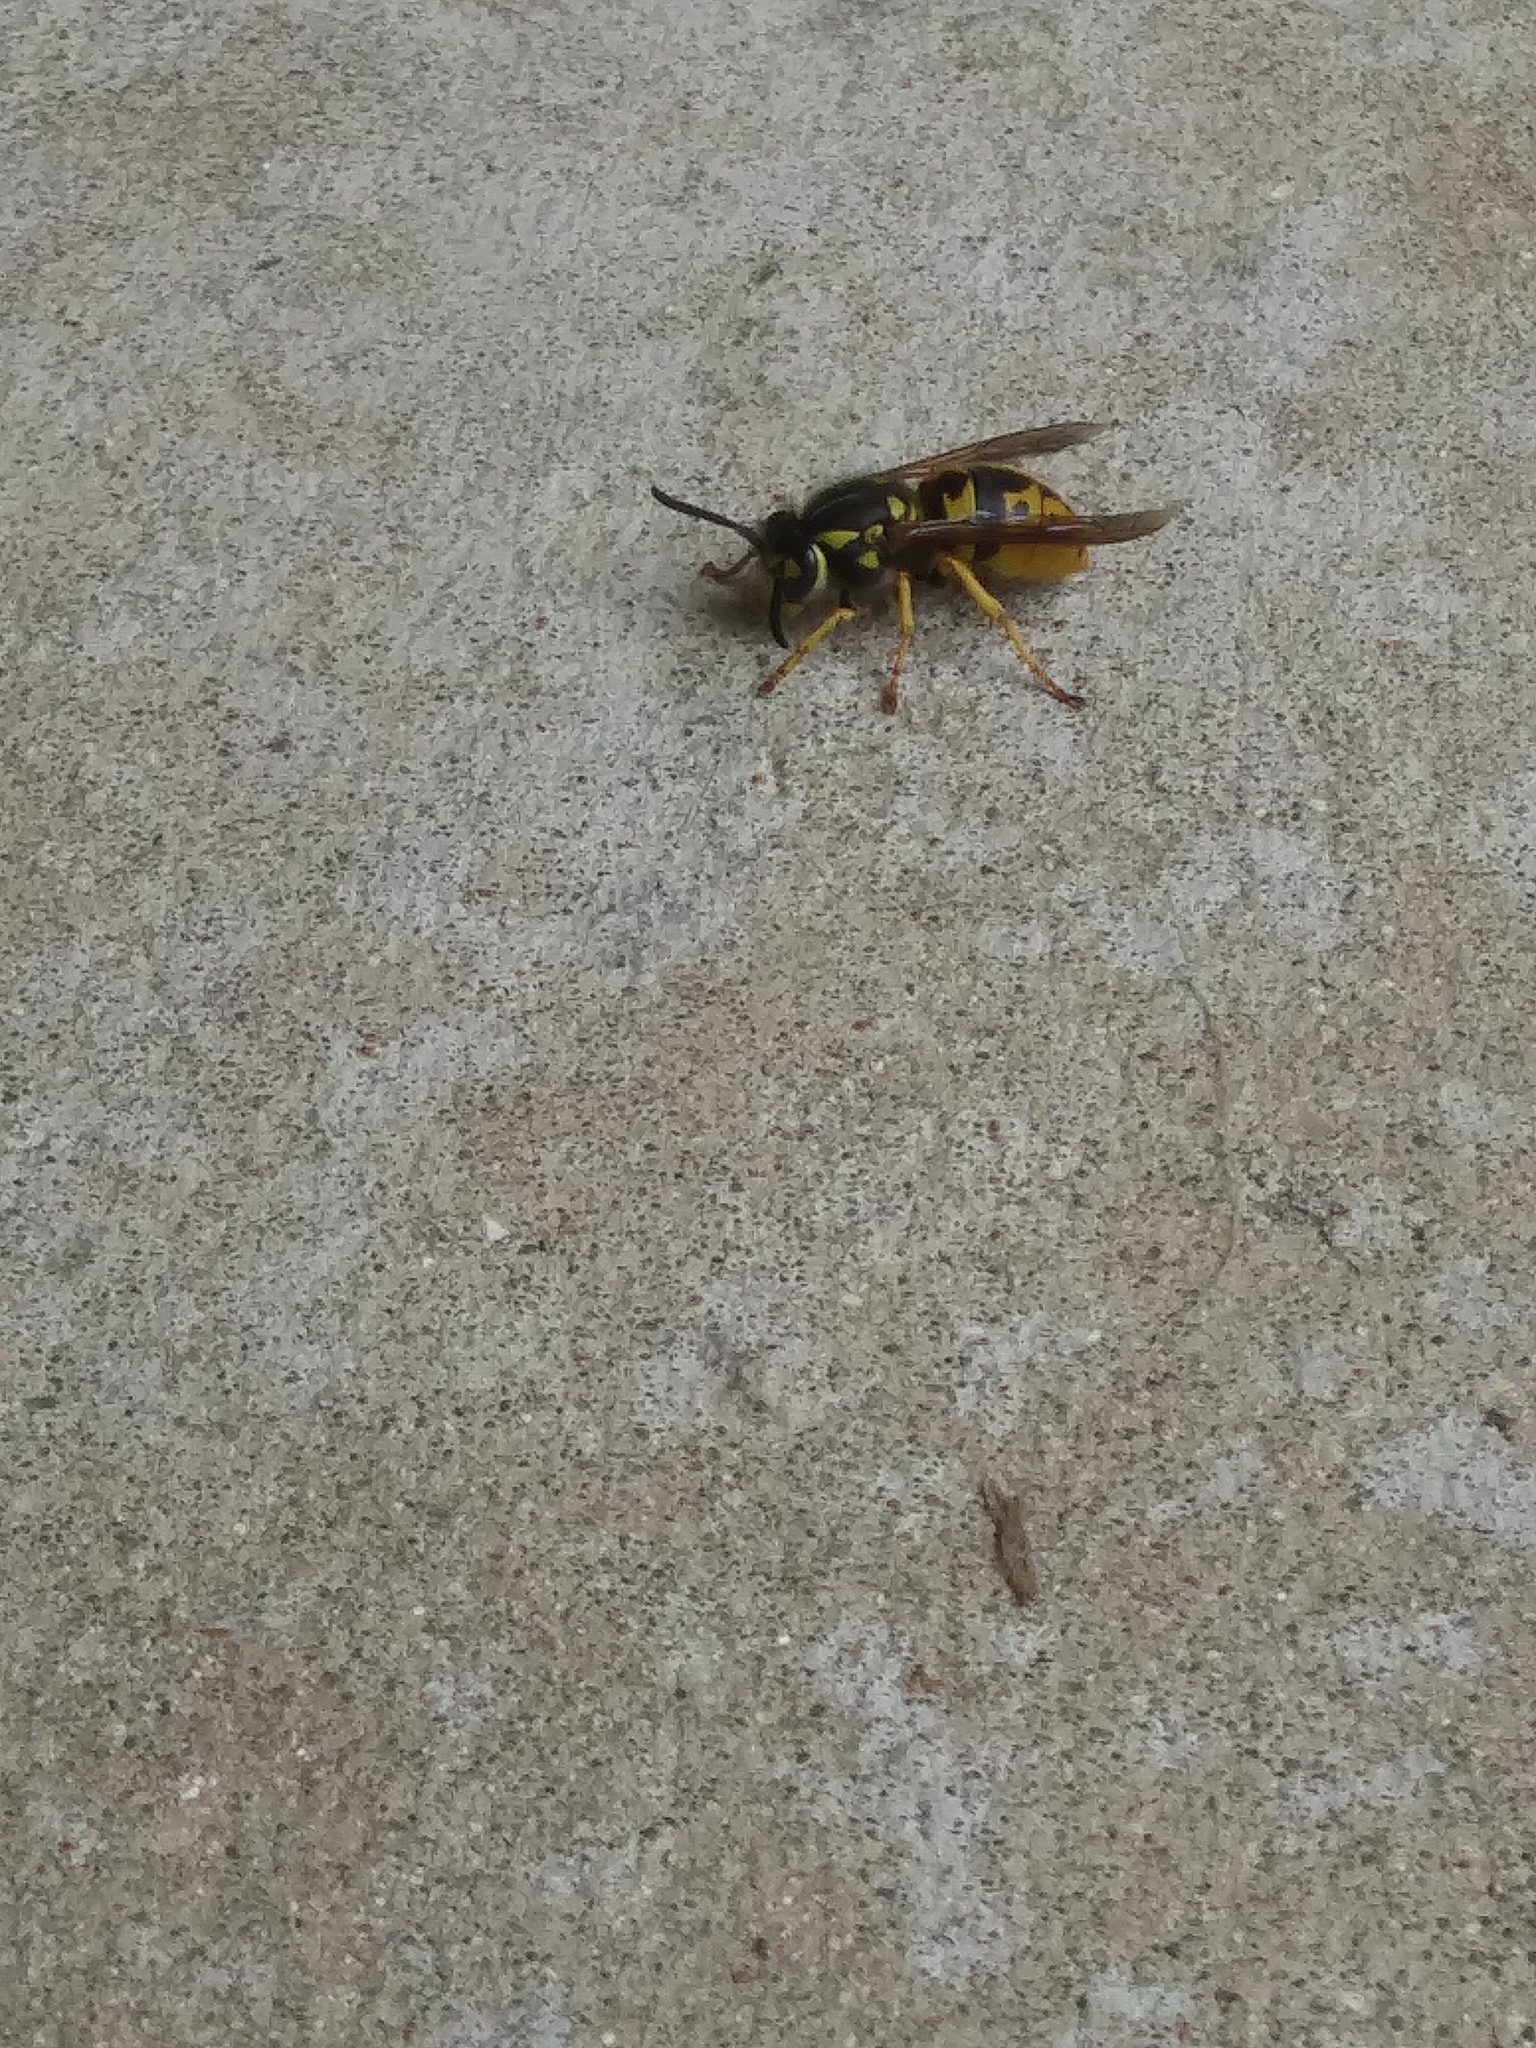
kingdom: Animalia
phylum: Arthropoda
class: Insecta
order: Hymenoptera
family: Vespidae
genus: Vespula
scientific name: Vespula germanica
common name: German wasp
